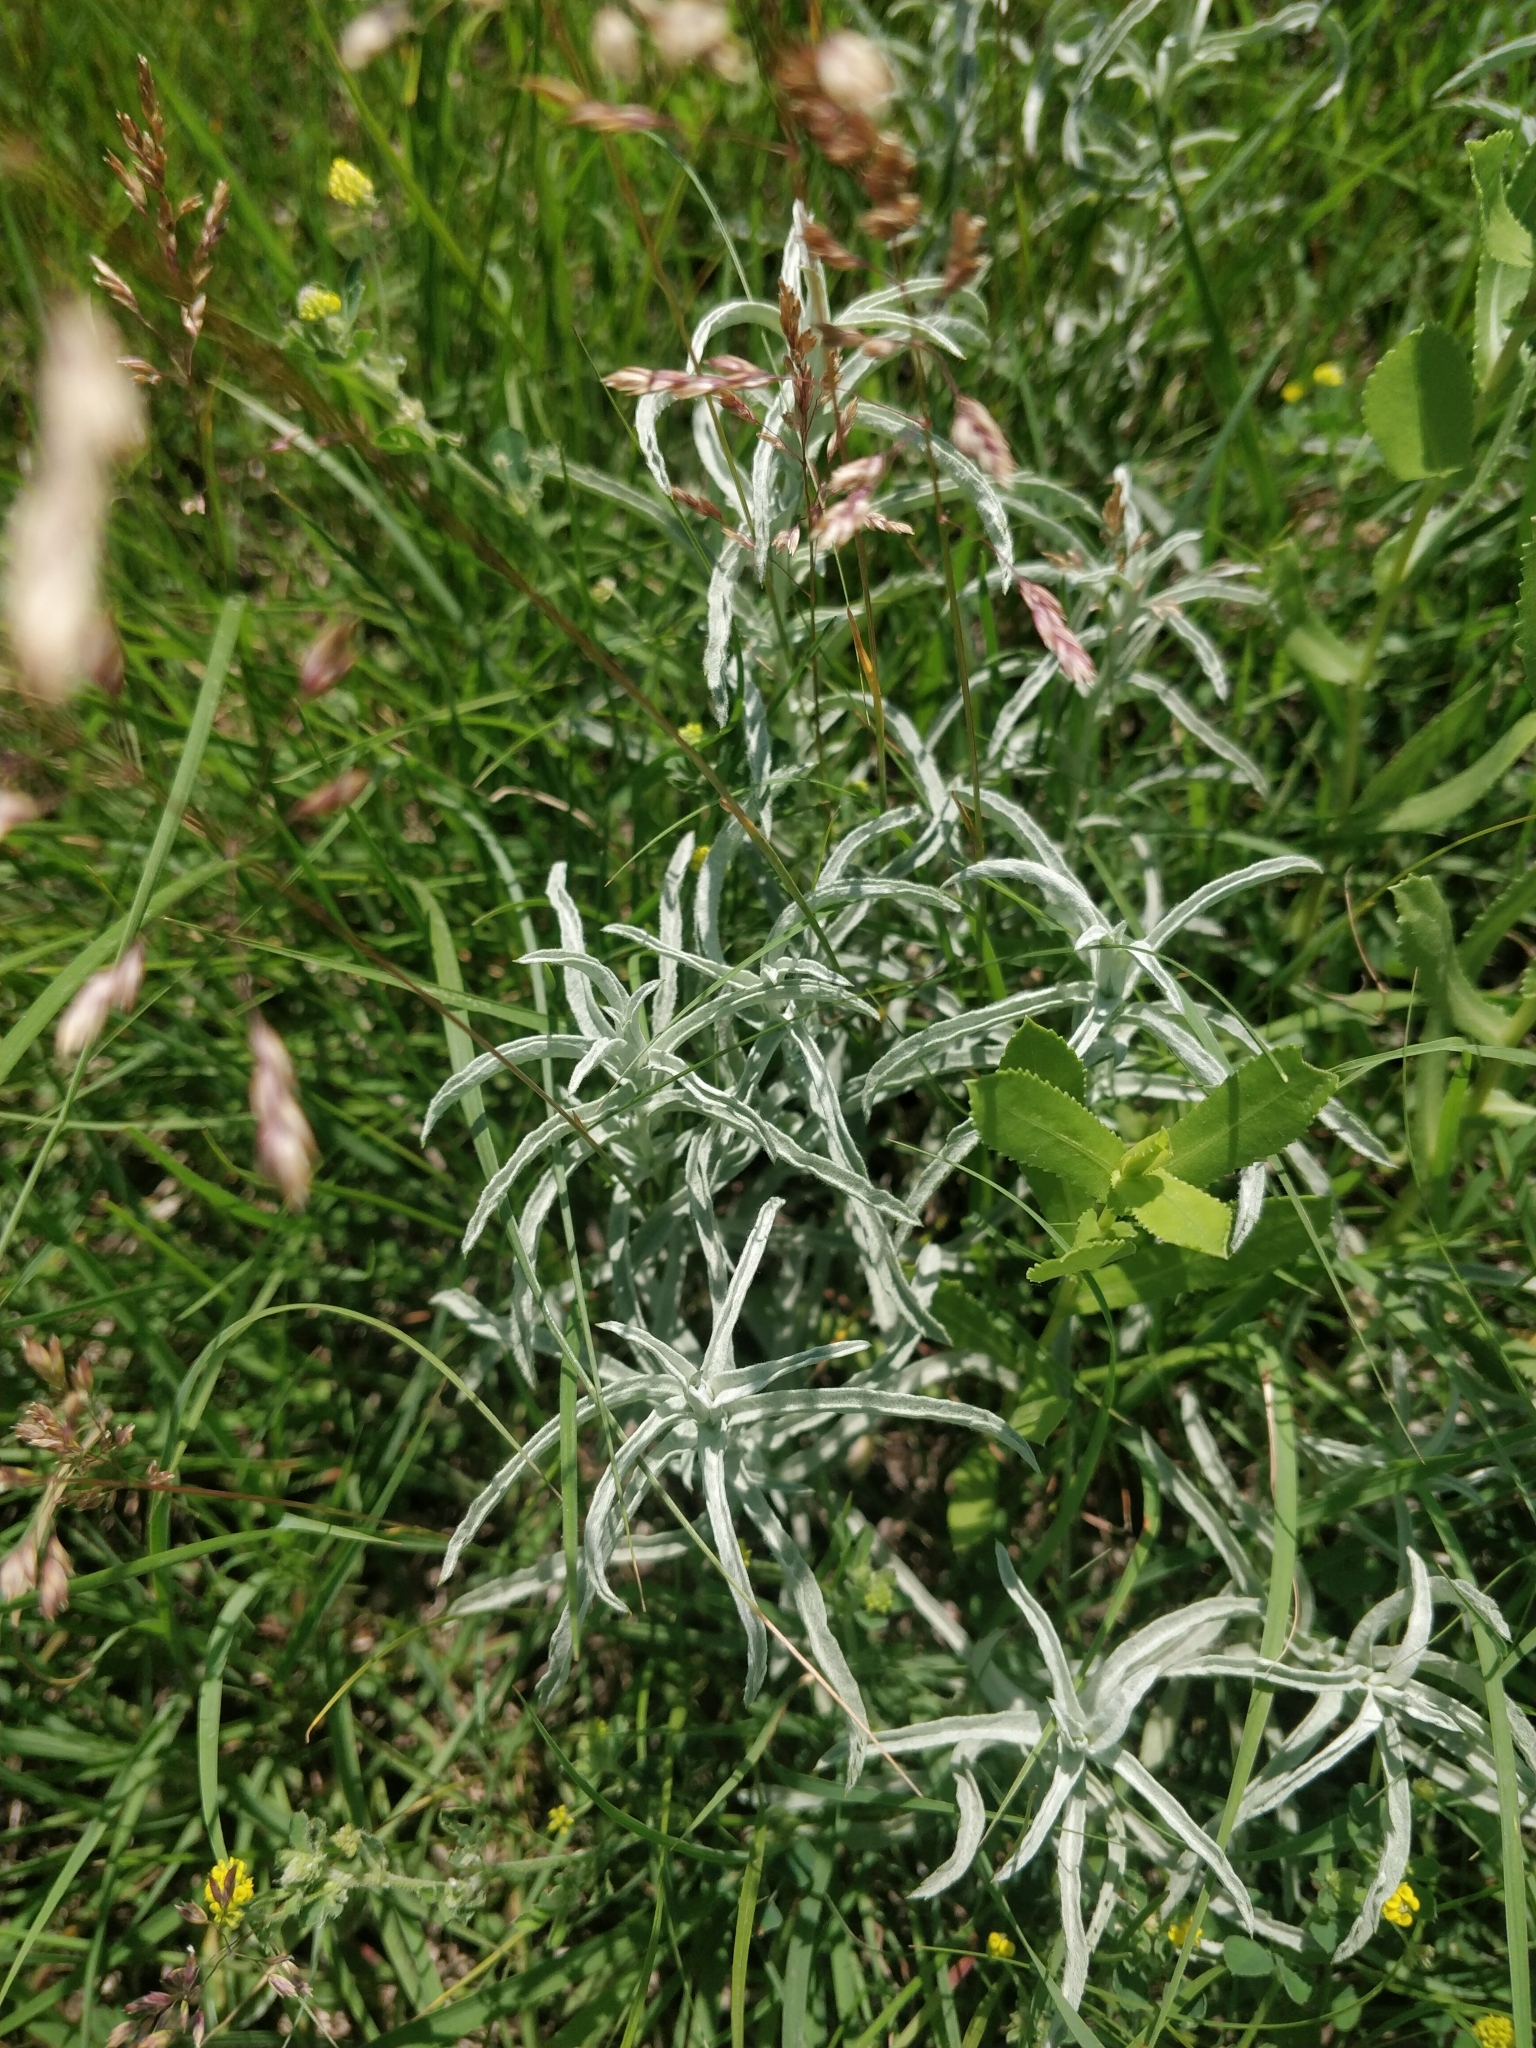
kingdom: Plantae
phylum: Tracheophyta
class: Magnoliopsida
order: Asterales
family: Asteraceae
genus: Artemisia
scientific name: Artemisia ludoviciana
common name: Western mugwort
